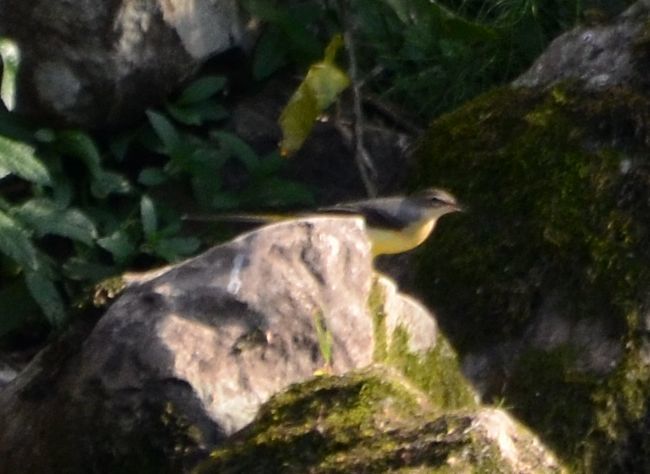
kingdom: Animalia
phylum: Chordata
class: Aves
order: Passeriformes
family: Motacillidae
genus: Motacilla
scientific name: Motacilla cinerea
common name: Grey wagtail
